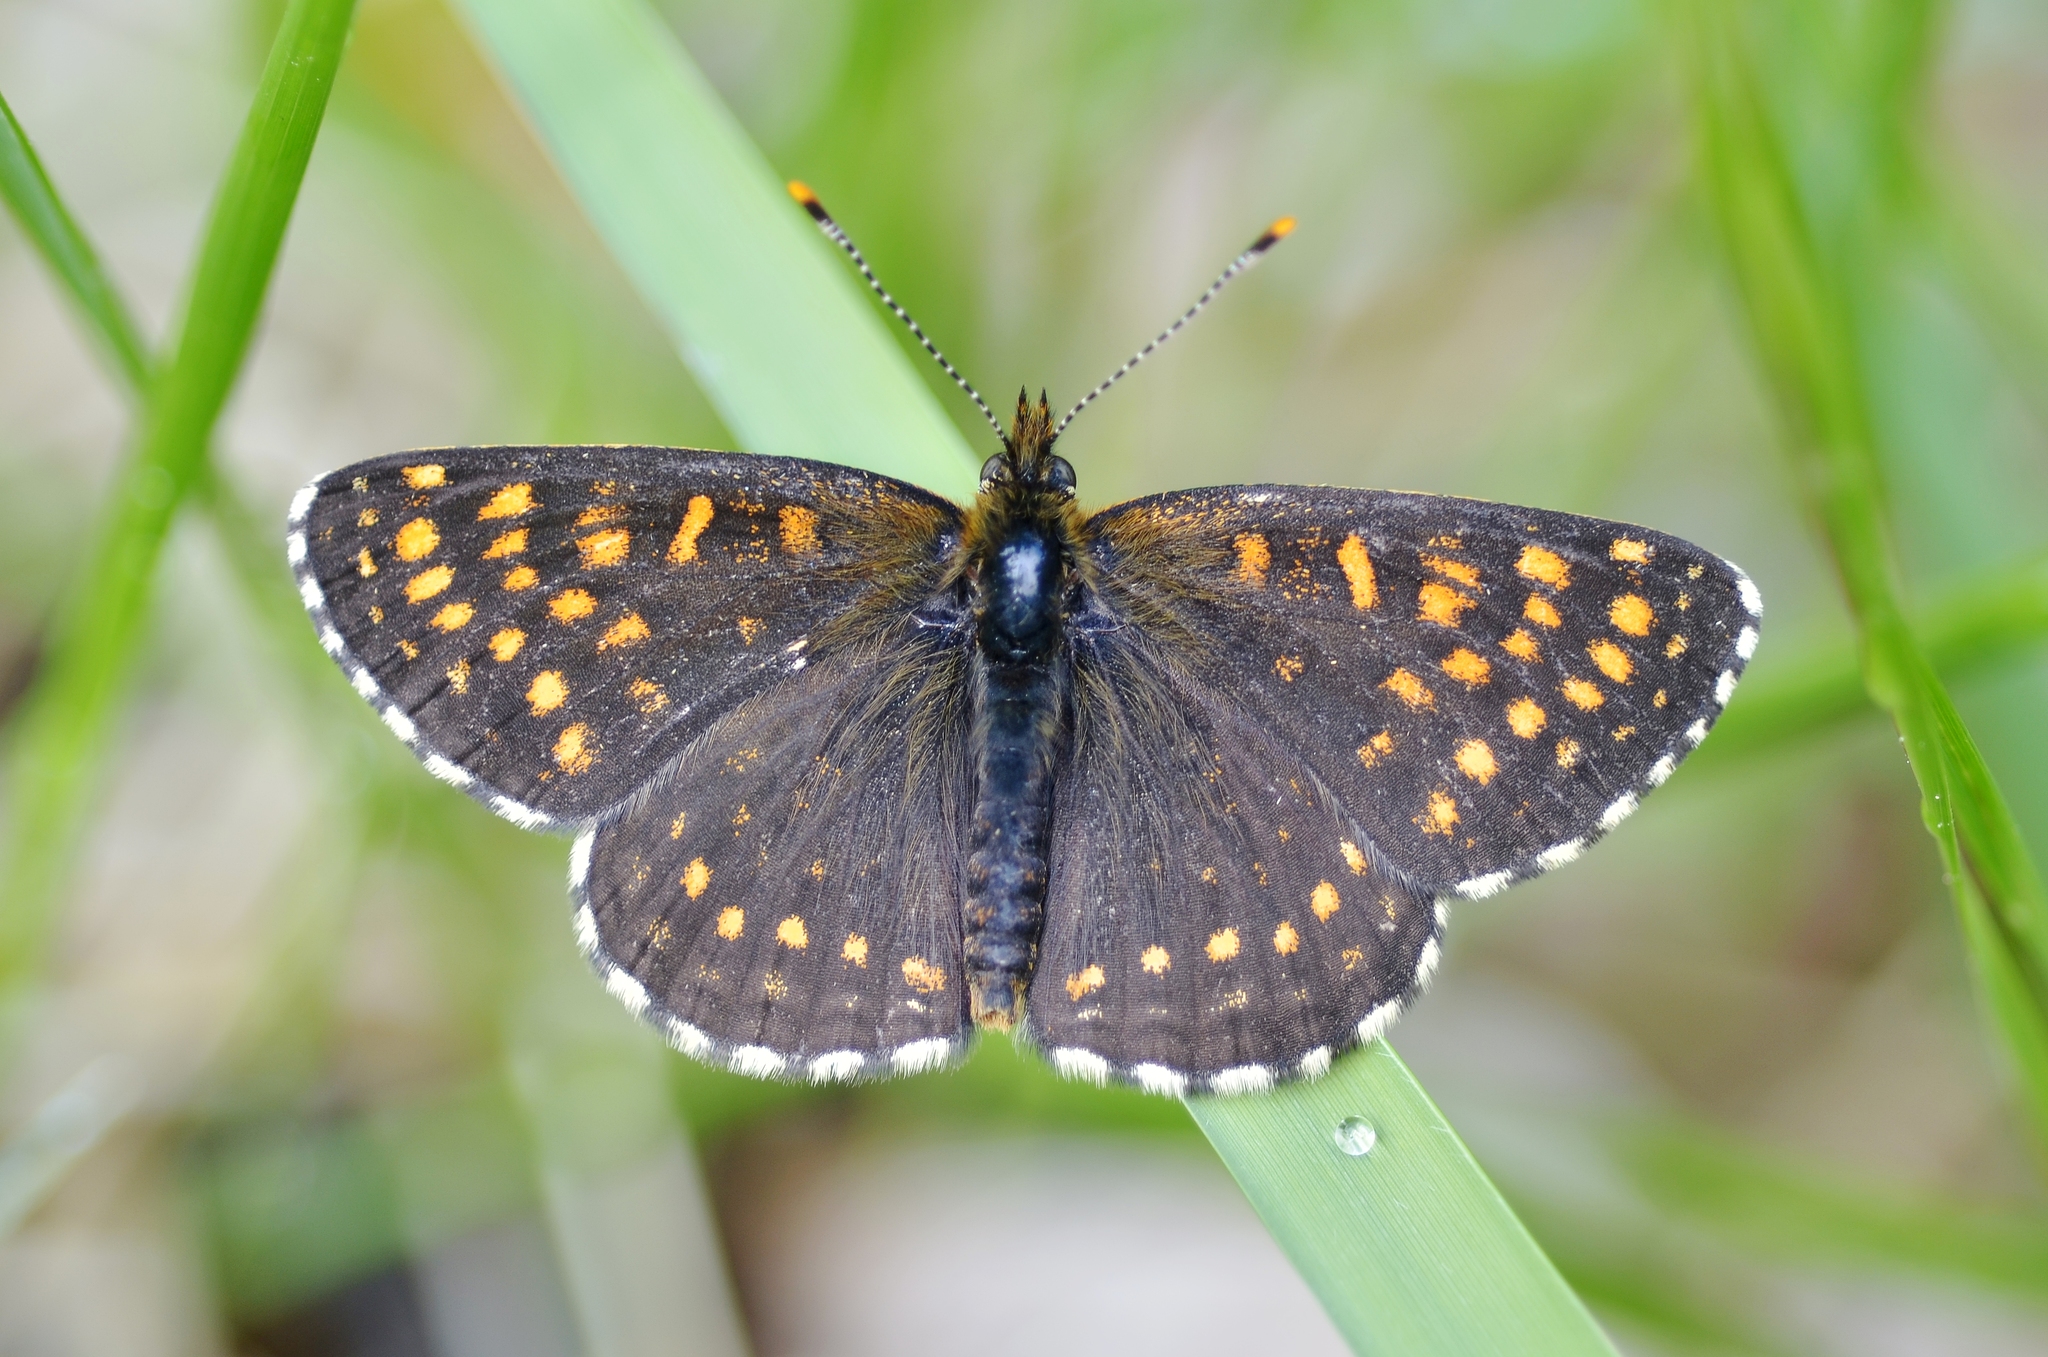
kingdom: Animalia
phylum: Arthropoda
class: Insecta
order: Lepidoptera
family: Nymphalidae
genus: Melitaea
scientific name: Melitaea diamina
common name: False heath fritillary
